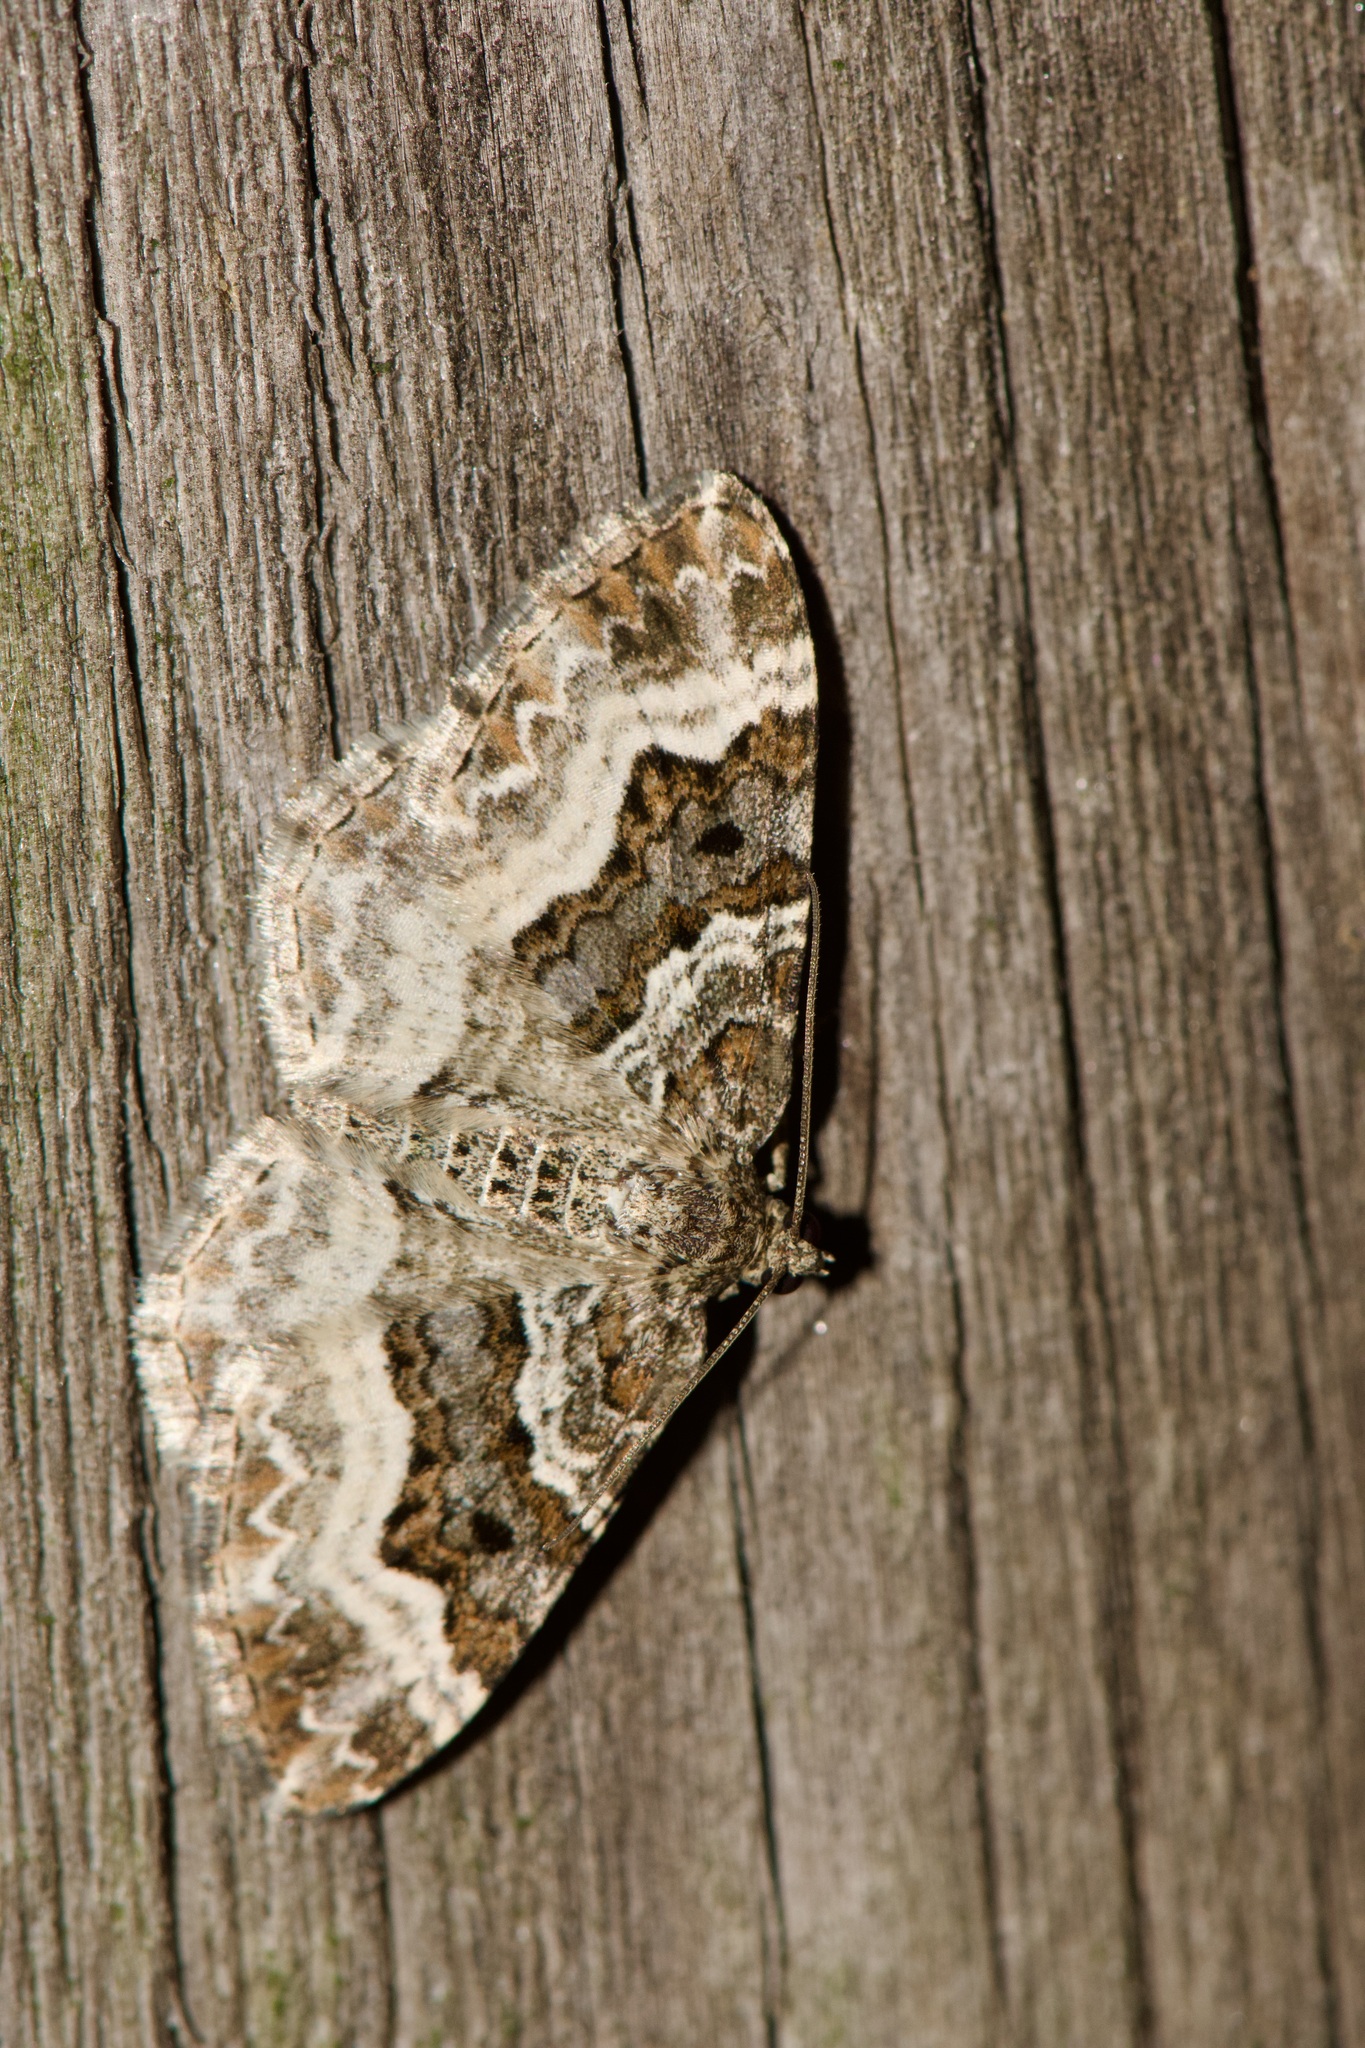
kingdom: Animalia
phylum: Arthropoda
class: Insecta
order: Lepidoptera
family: Geometridae
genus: Epirrhoe
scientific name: Epirrhoe alternata
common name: Common carpet
